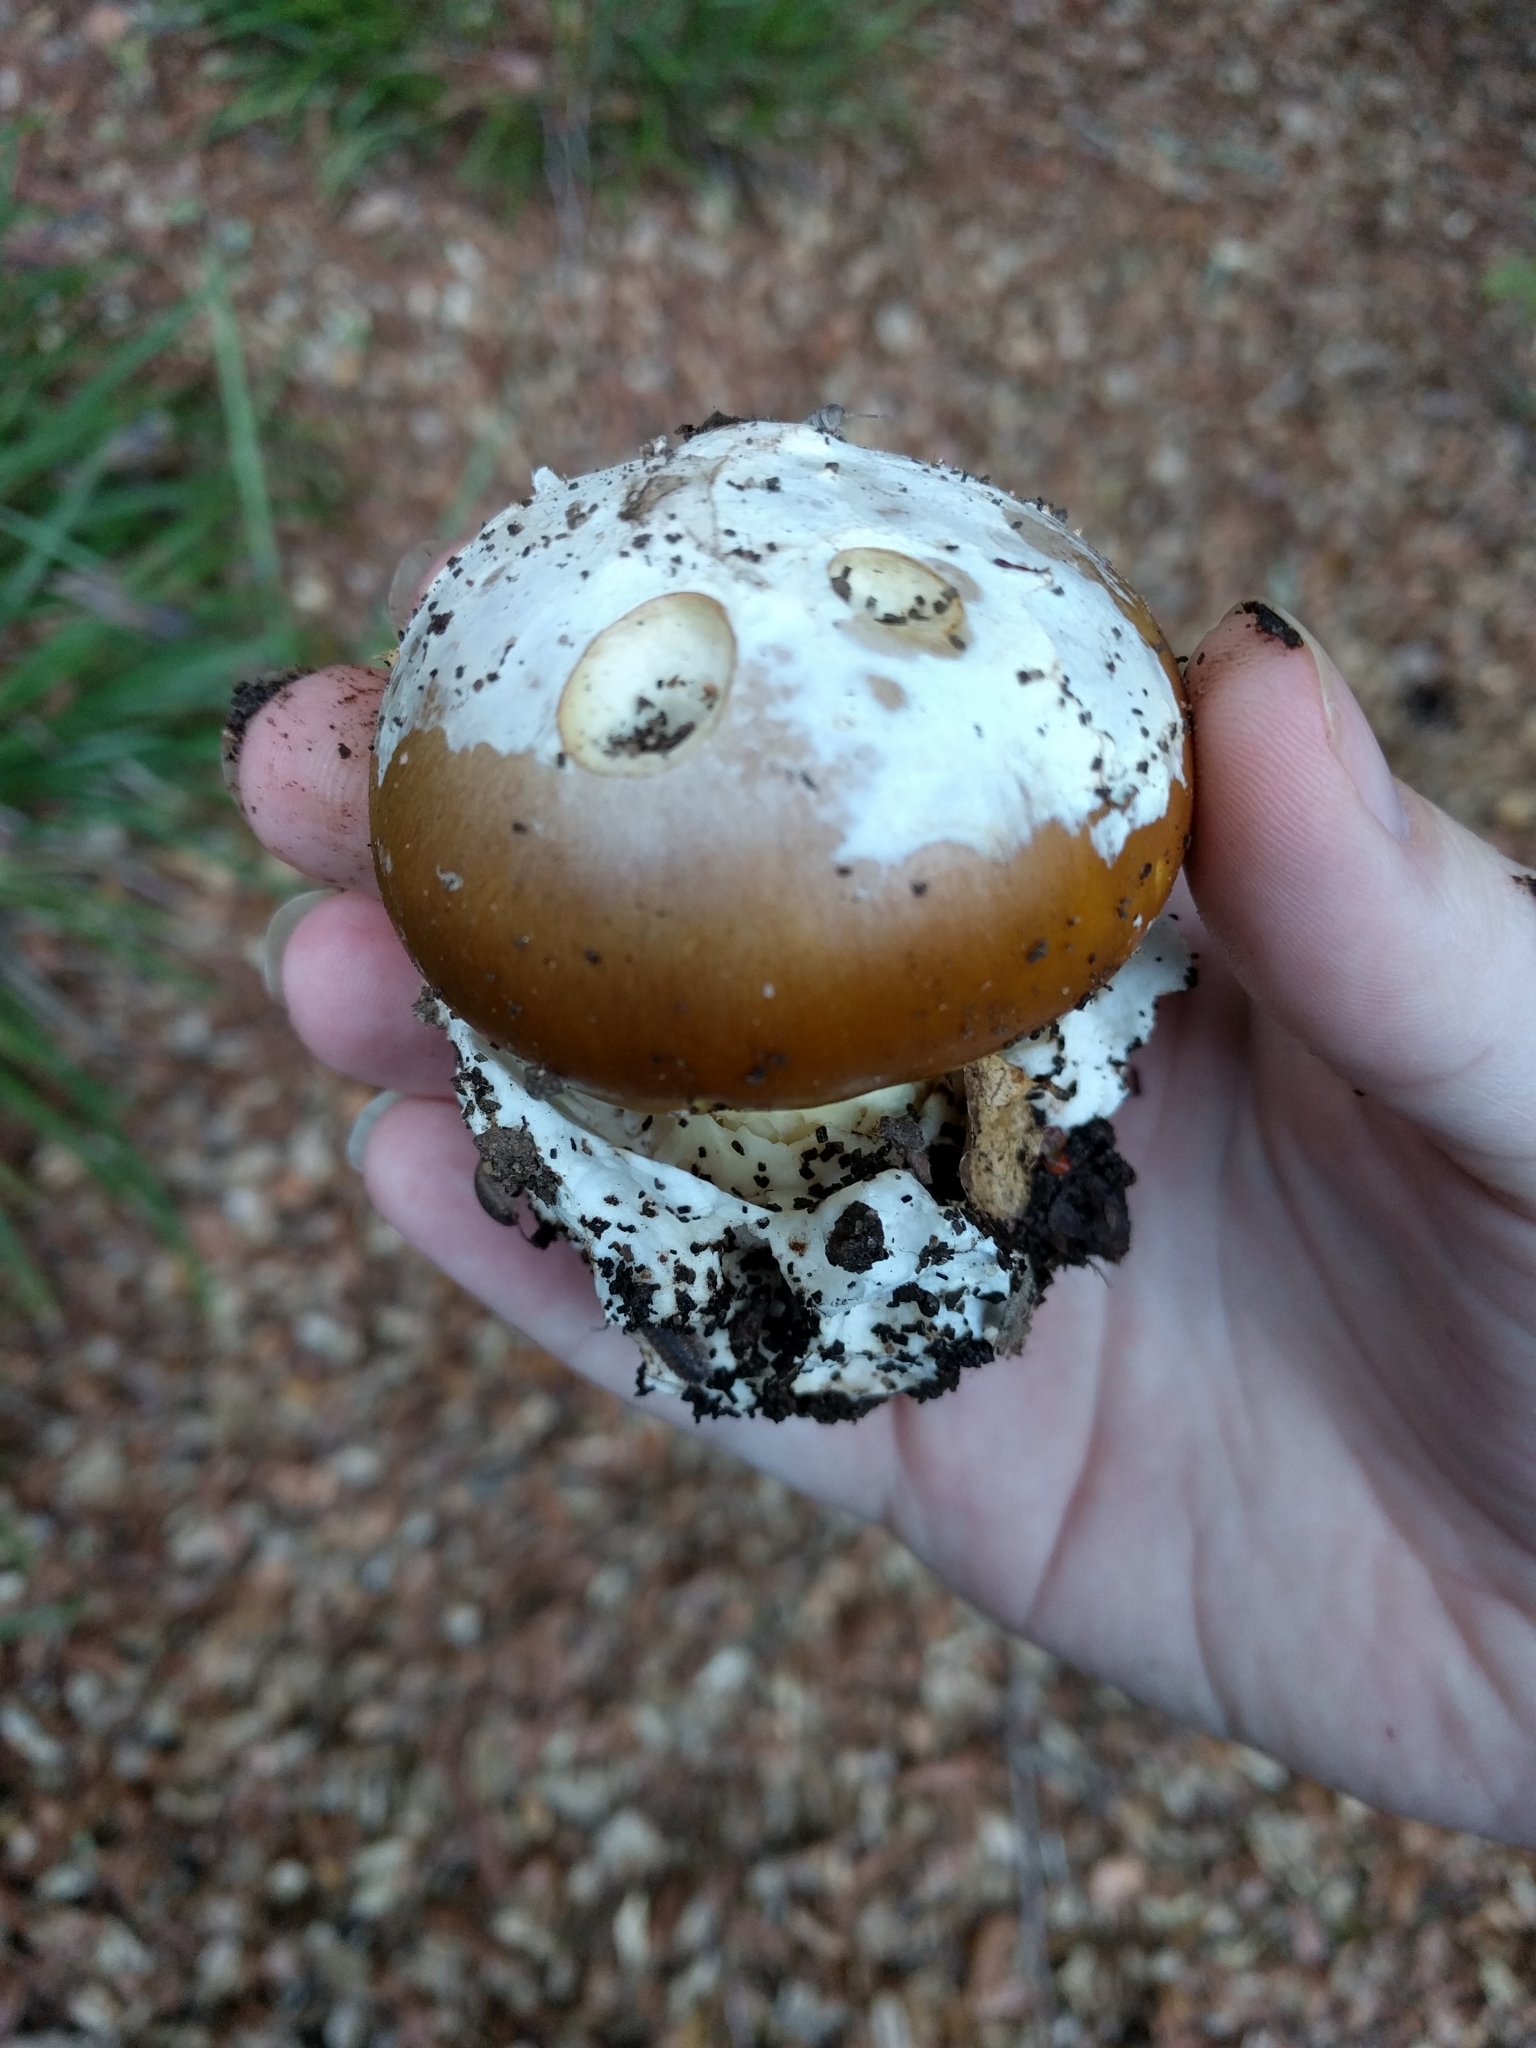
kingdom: Fungi
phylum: Basidiomycota
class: Agaricomycetes
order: Agaricales
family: Amanitaceae
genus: Amanita
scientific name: Amanita calyptroderma
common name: Coccora
